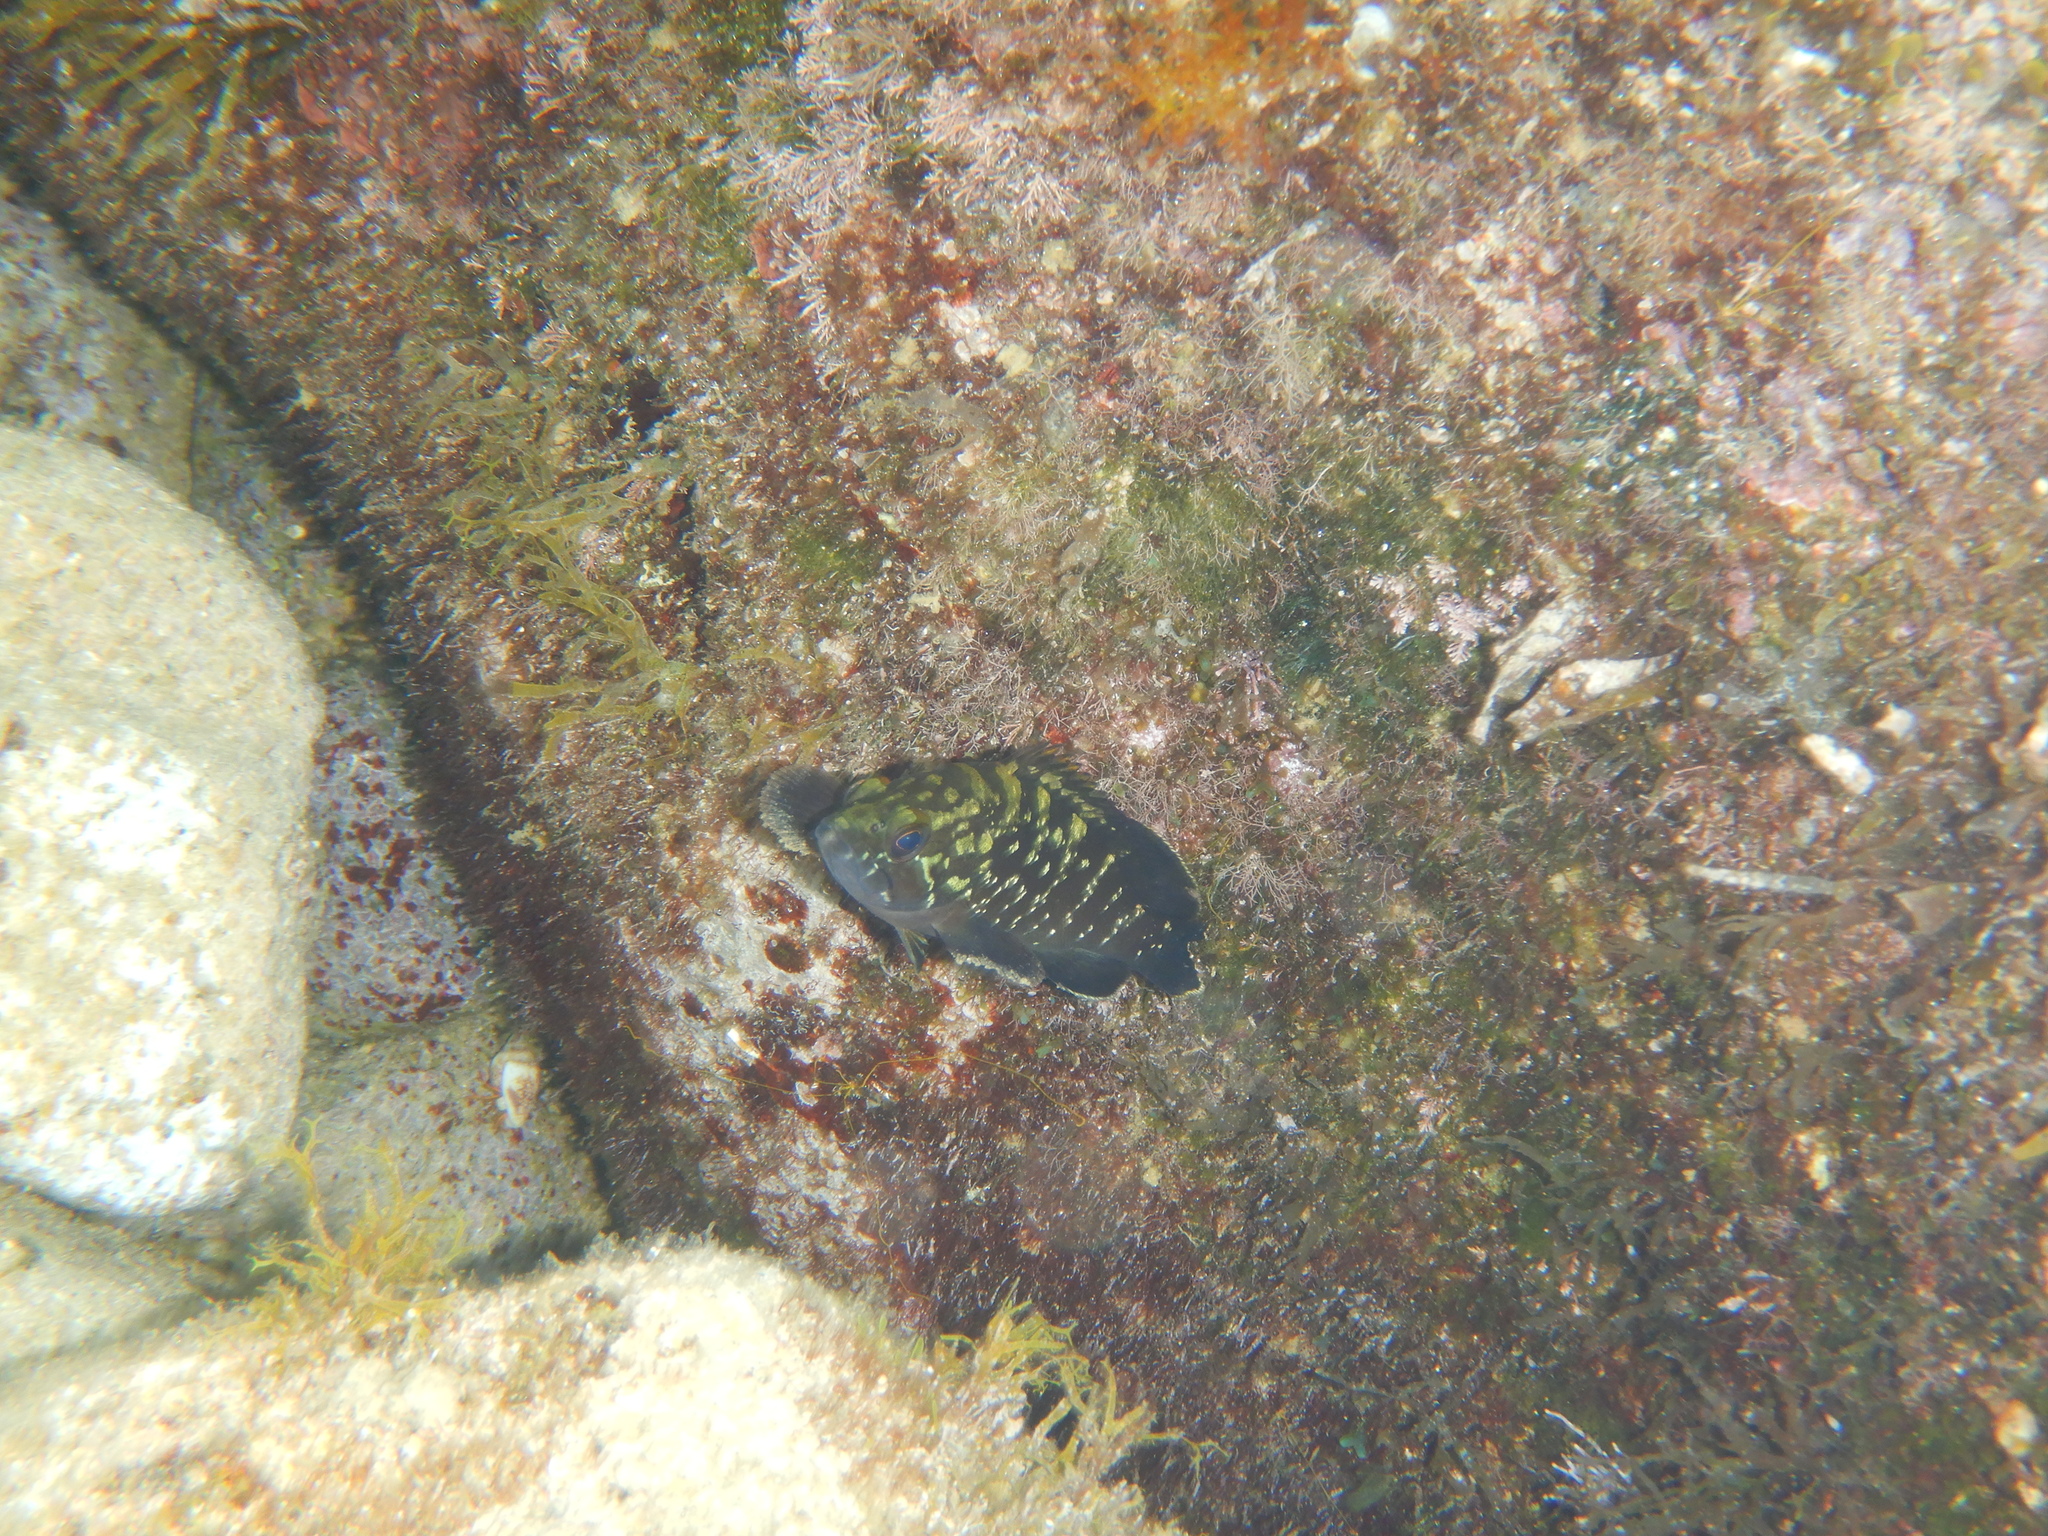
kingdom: Animalia
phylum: Chordata
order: Perciformes
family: Serranidae
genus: Epinephelus
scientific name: Epinephelus marginatus
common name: Dusky grouper
